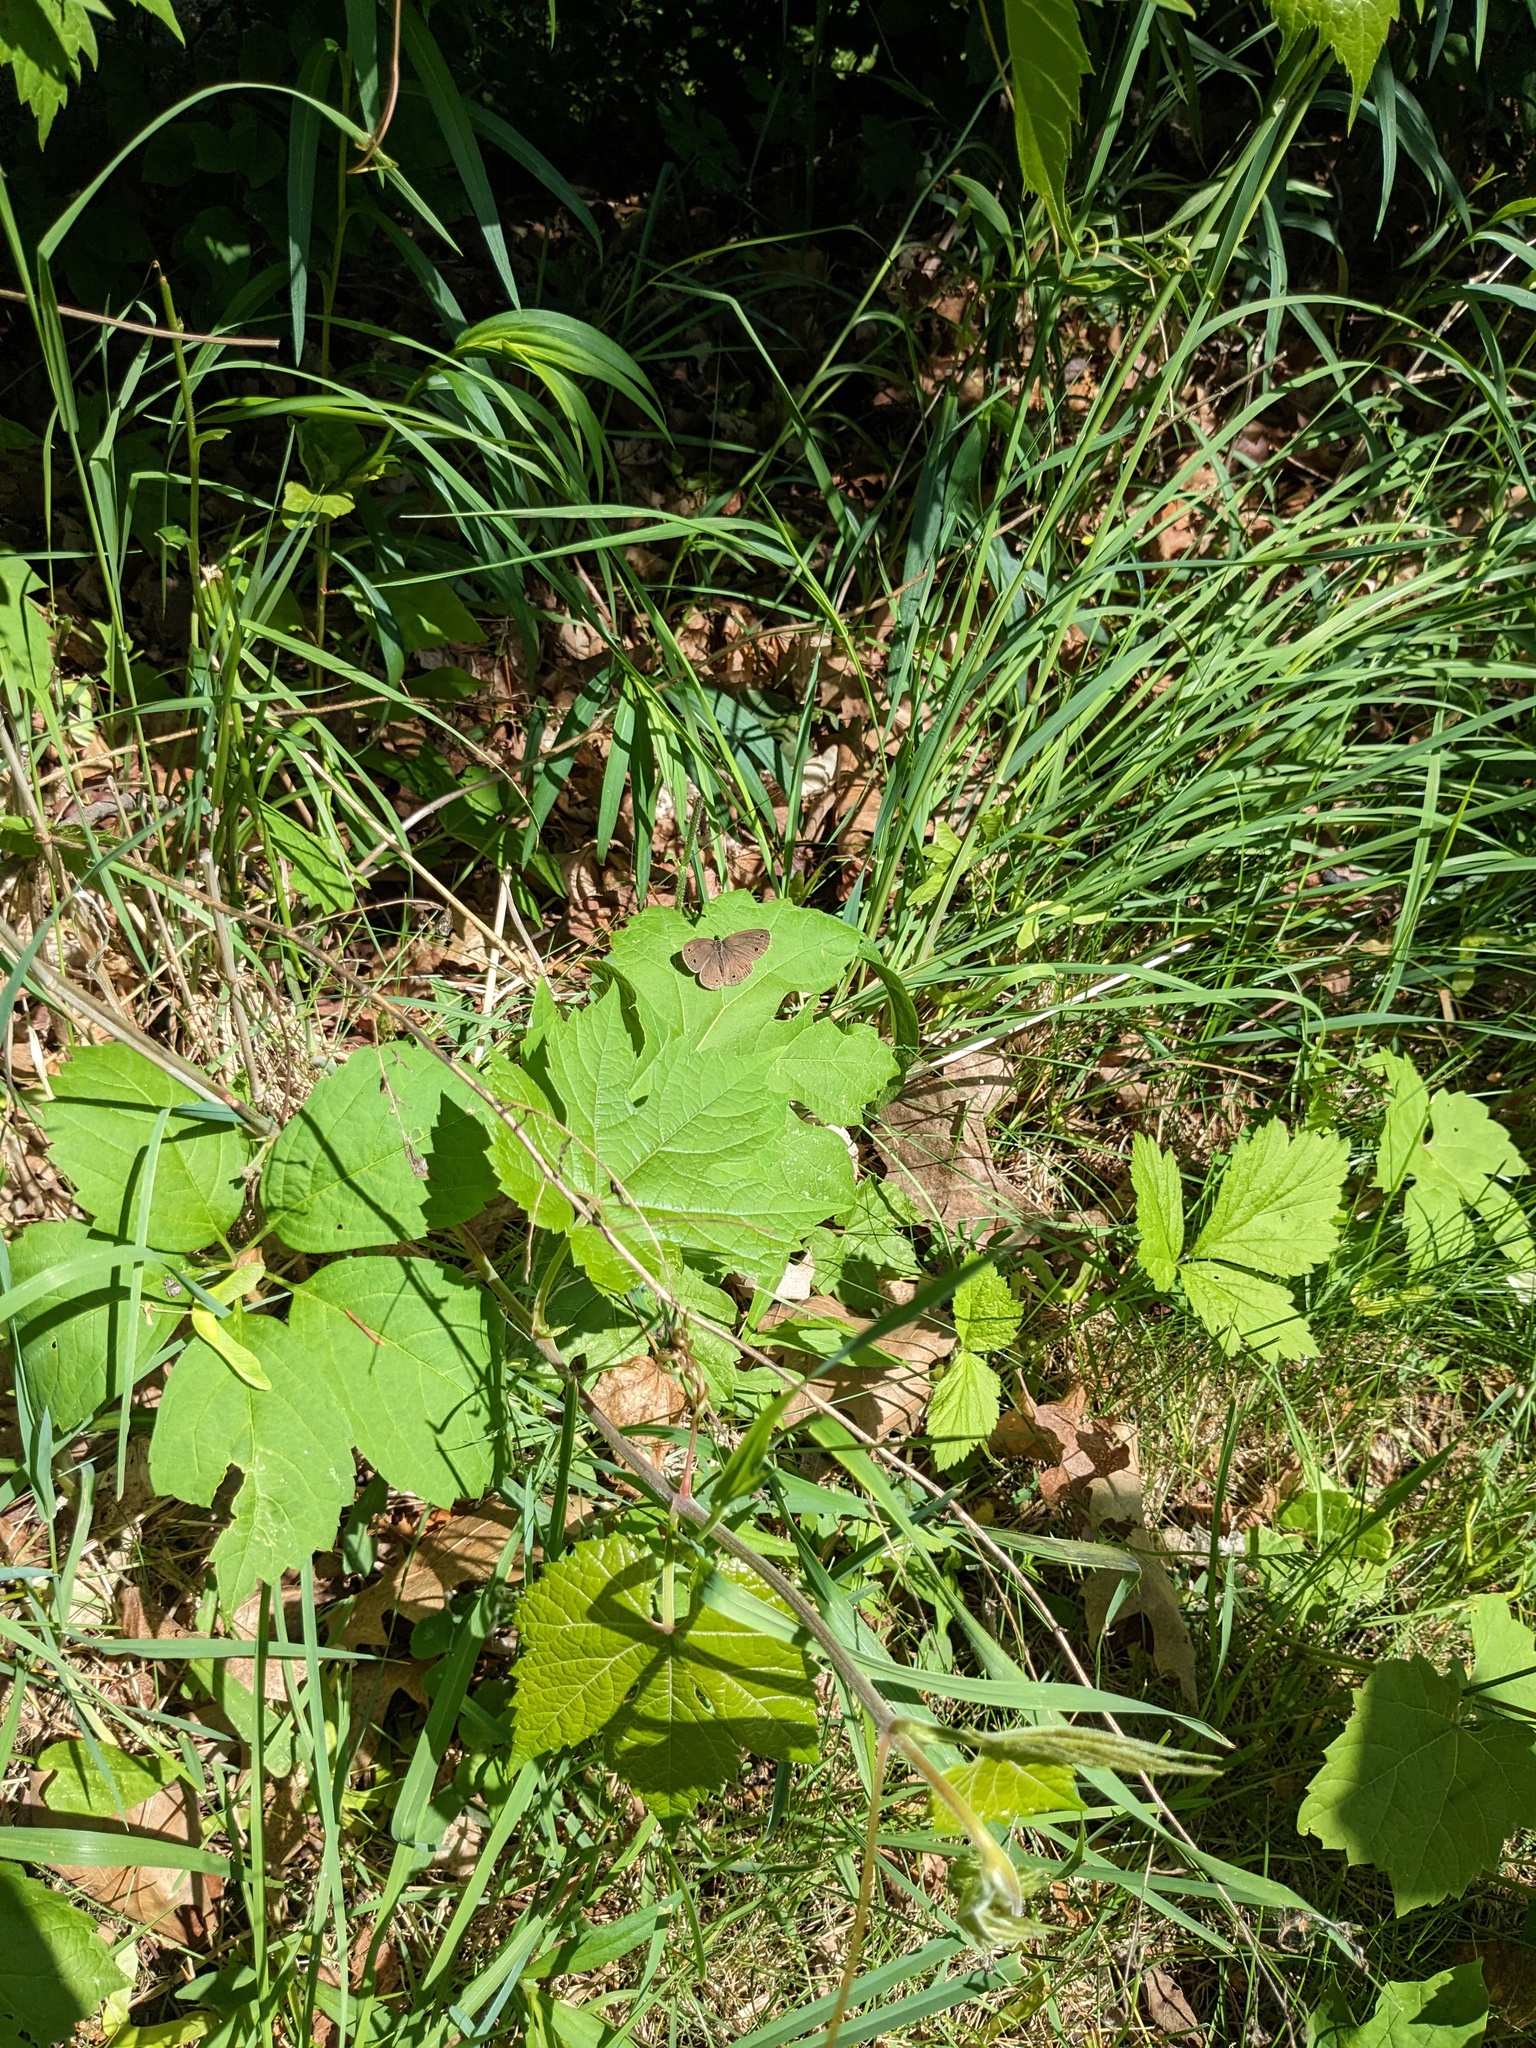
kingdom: Animalia
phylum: Arthropoda
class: Insecta
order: Lepidoptera
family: Nymphalidae
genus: Euptychia
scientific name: Euptychia cymela
